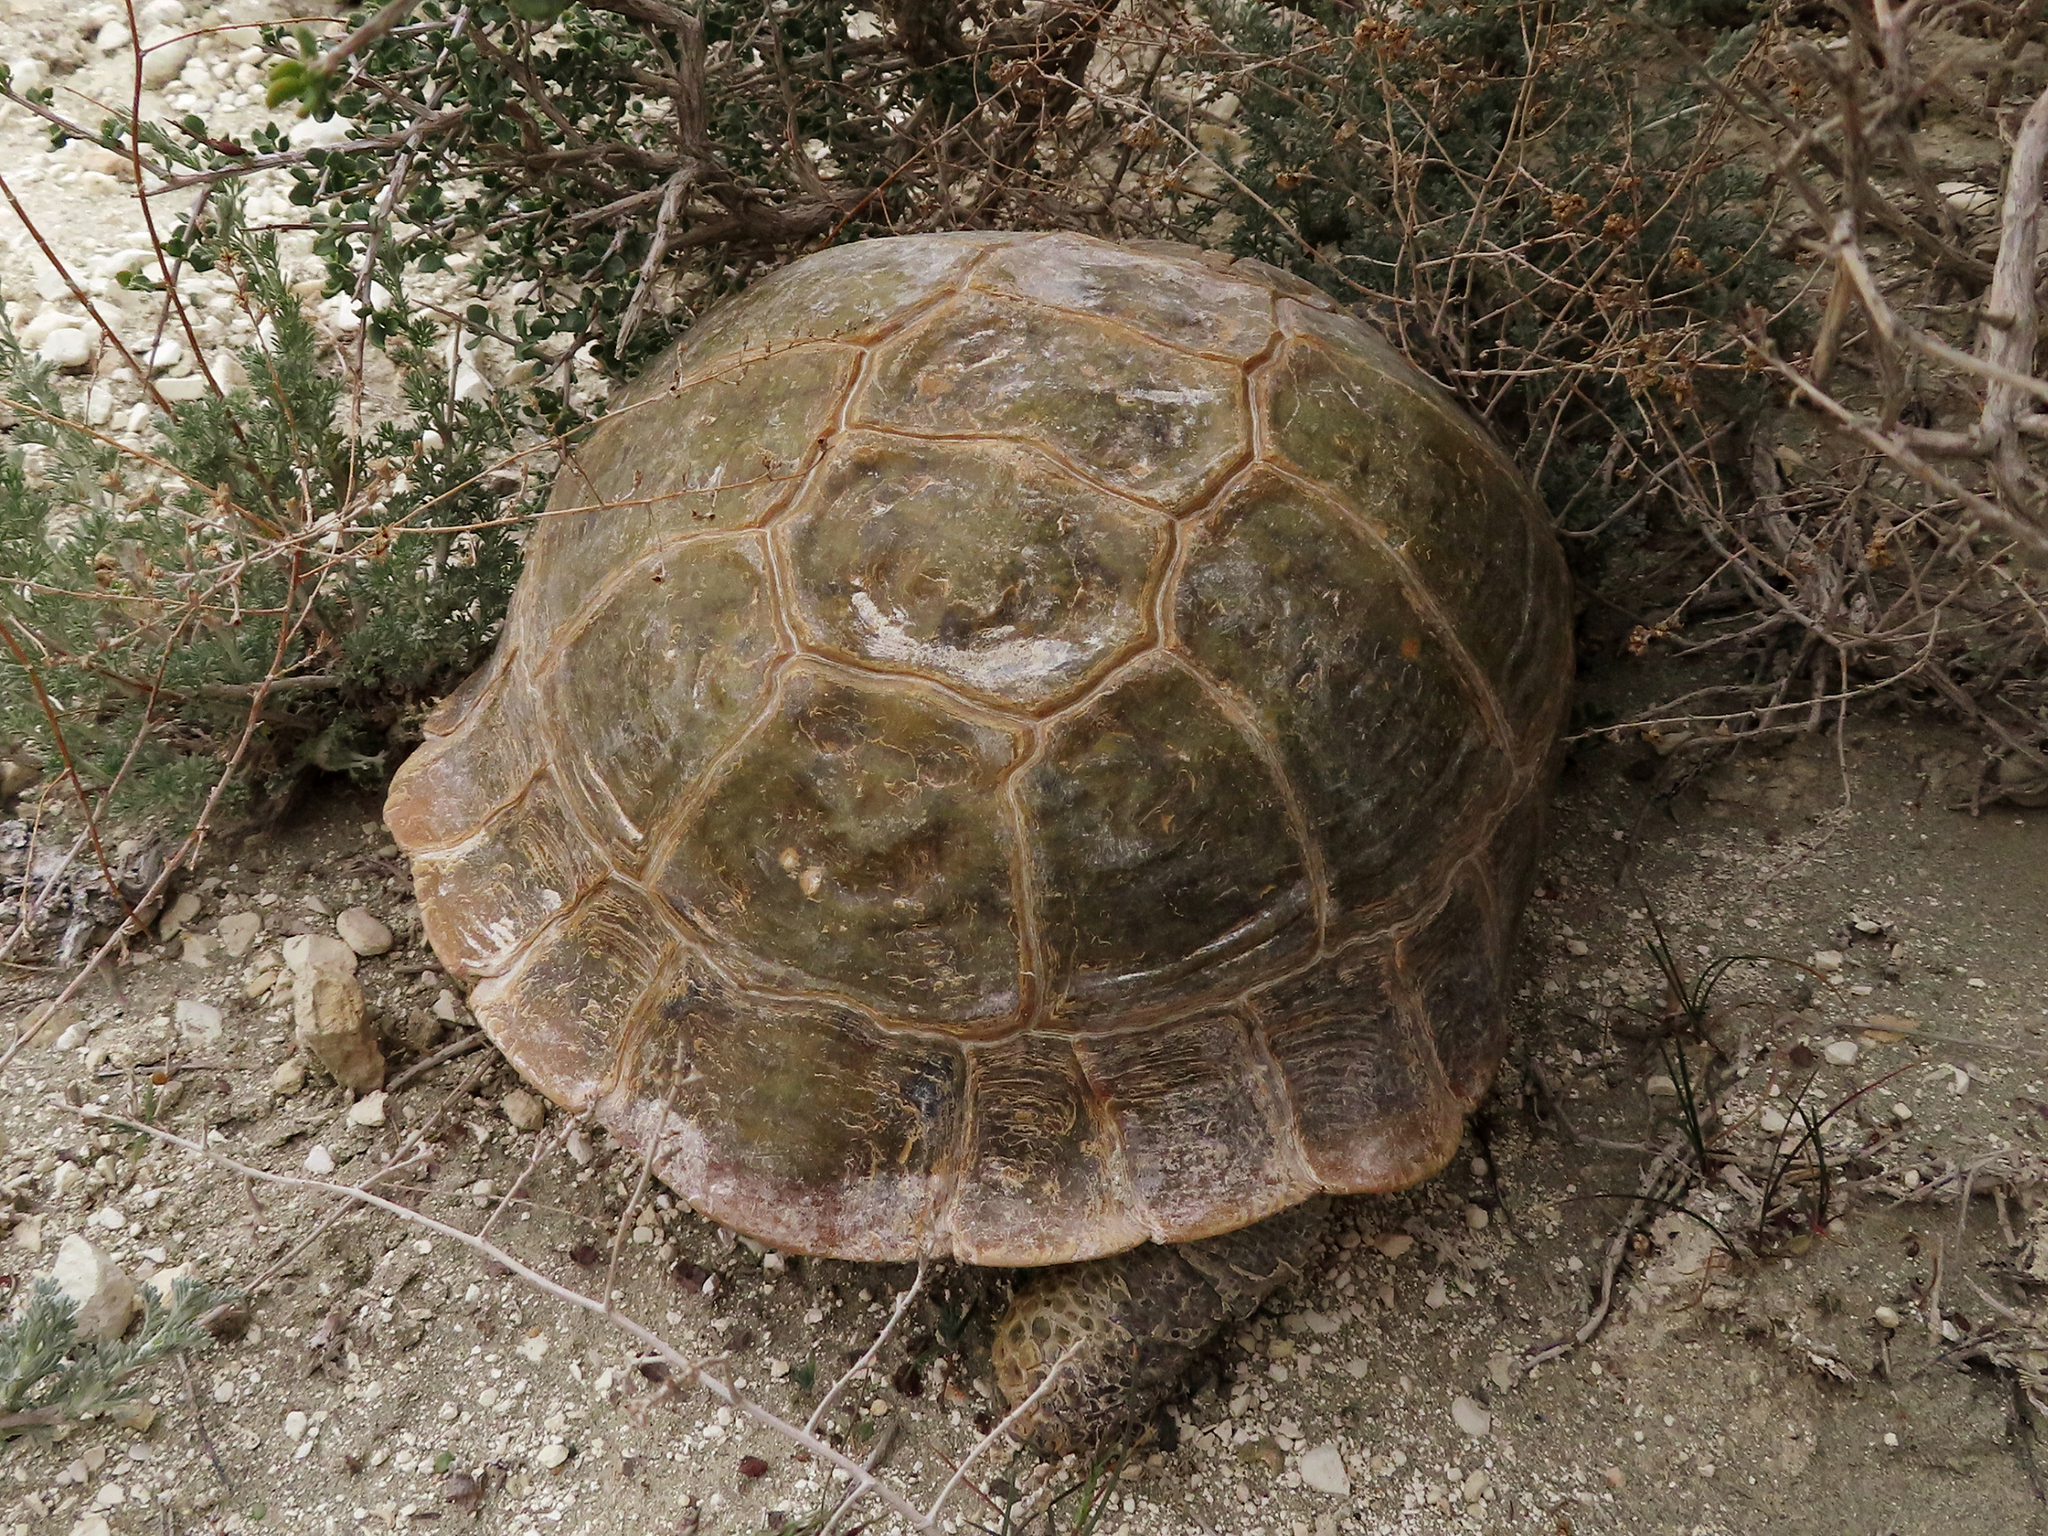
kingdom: Animalia
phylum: Chordata
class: Testudines
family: Testudinidae
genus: Testudo
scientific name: Testudo horsfieldii
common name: Central asia tortoise
